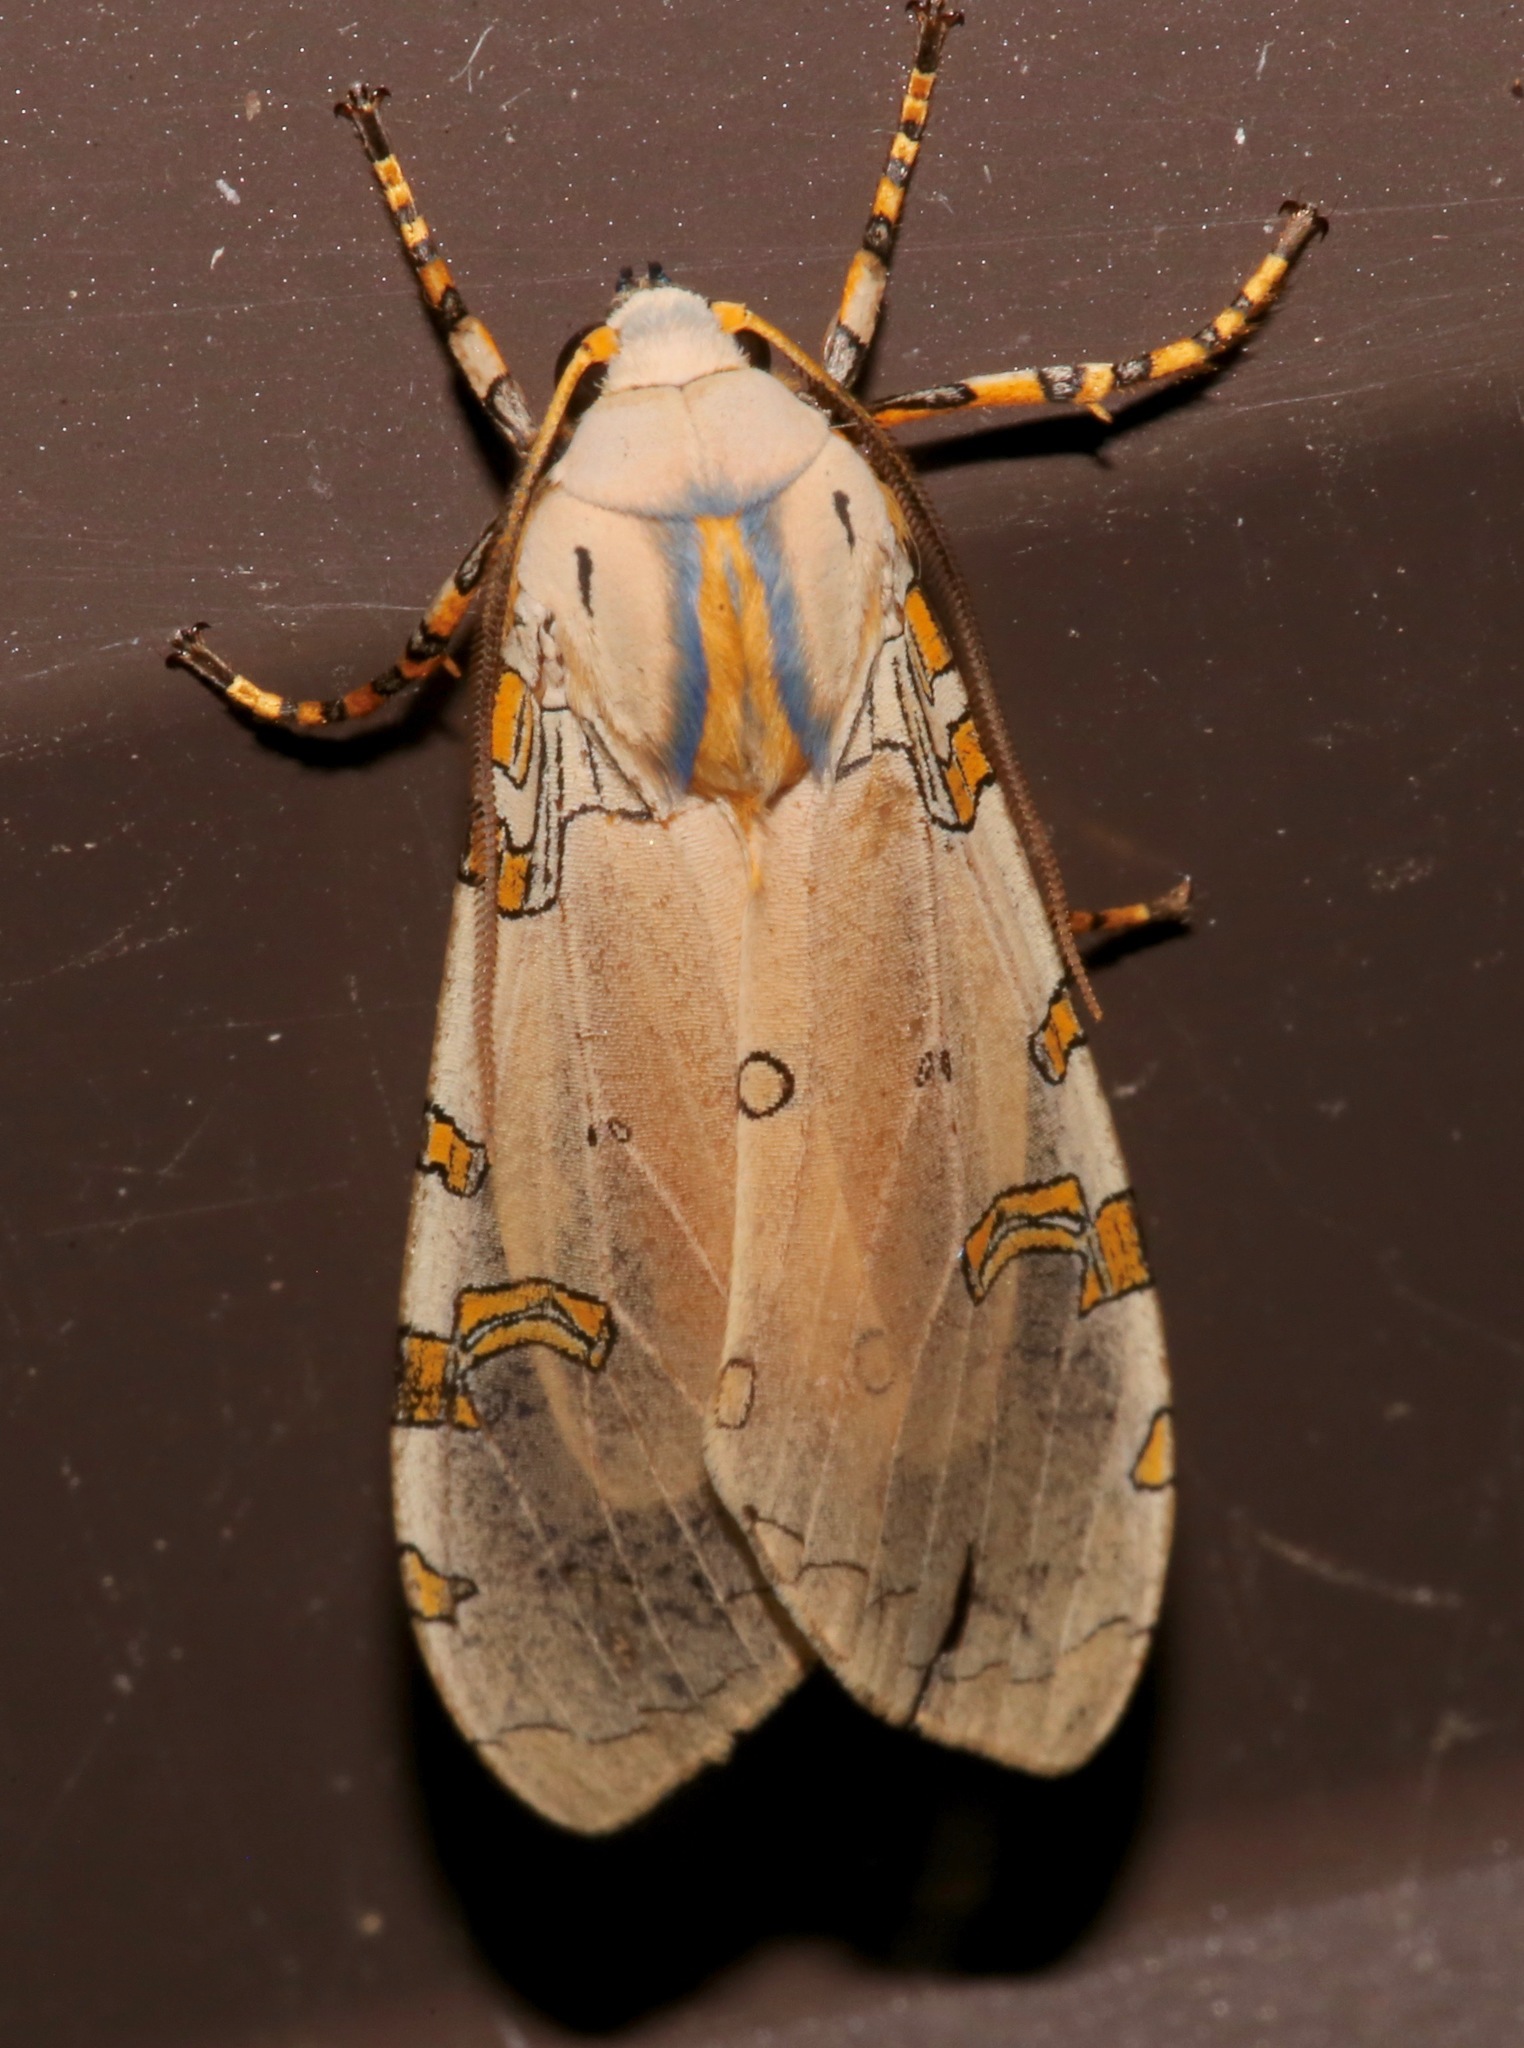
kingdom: Animalia
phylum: Arthropoda
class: Insecta
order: Lepidoptera
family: Erebidae
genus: Halysidota
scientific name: Halysidota davisii
